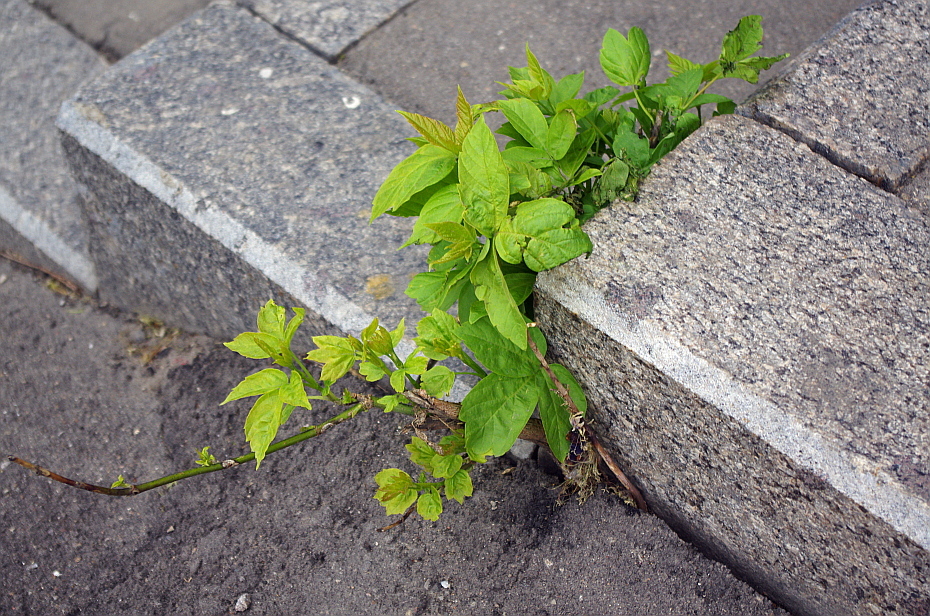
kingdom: Plantae
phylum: Tracheophyta
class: Magnoliopsida
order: Sapindales
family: Sapindaceae
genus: Acer
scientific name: Acer negundo
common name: Ashleaf maple
